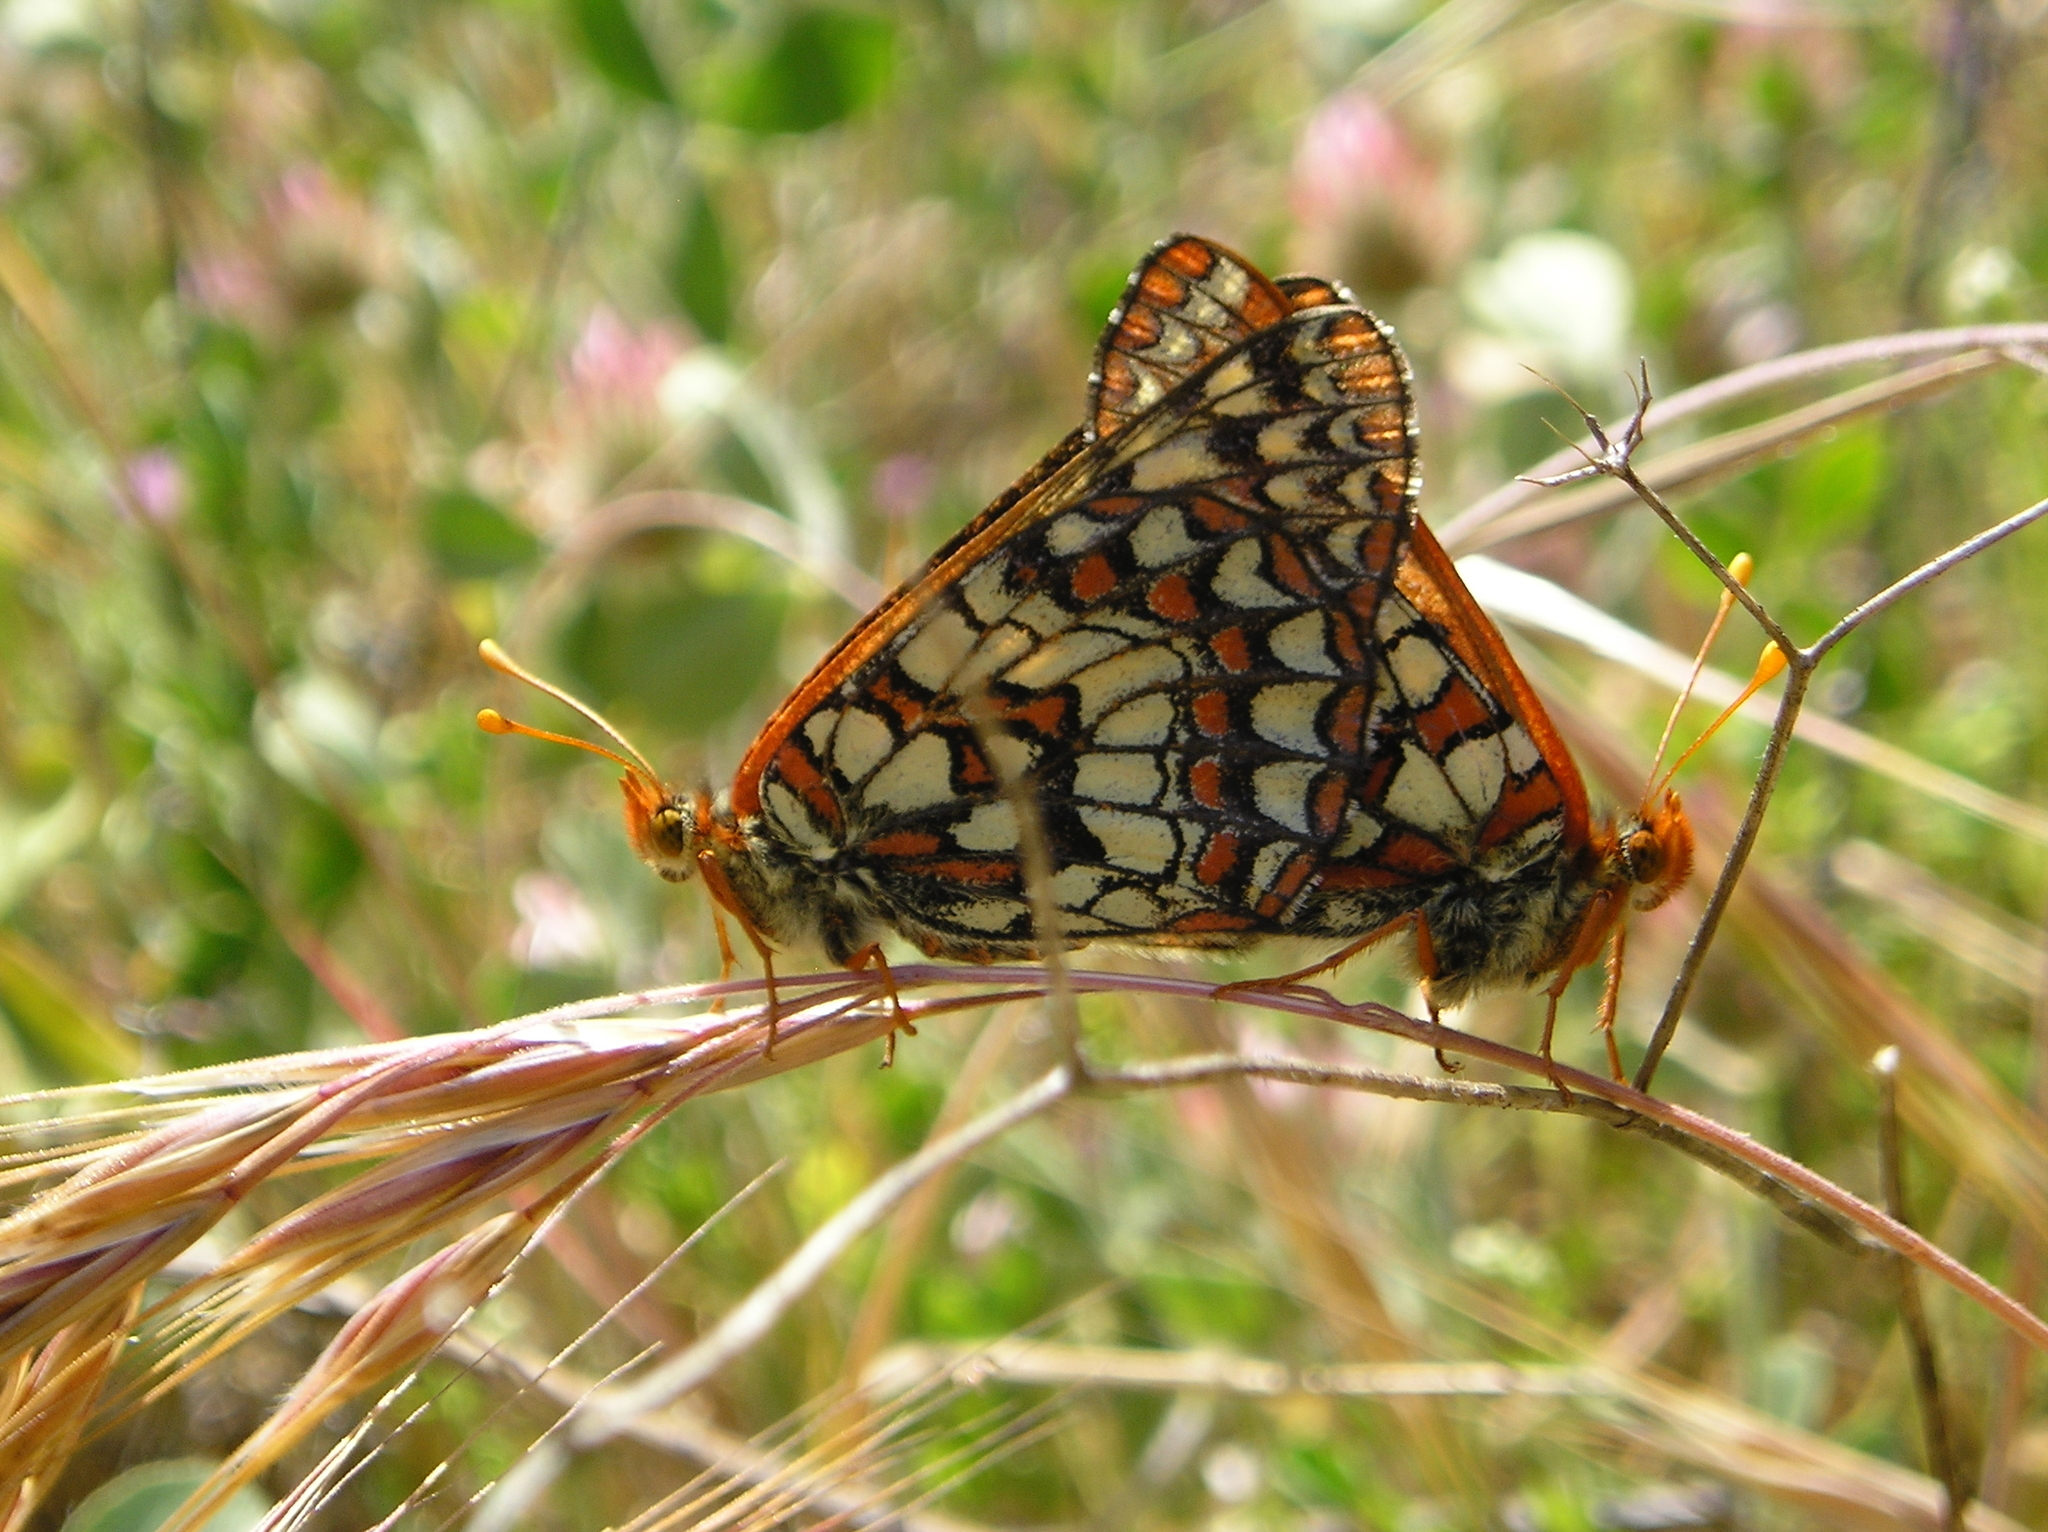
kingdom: Animalia
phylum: Arthropoda
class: Insecta
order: Lepidoptera
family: Nymphalidae
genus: Occidryas
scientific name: Occidryas chalcedona
